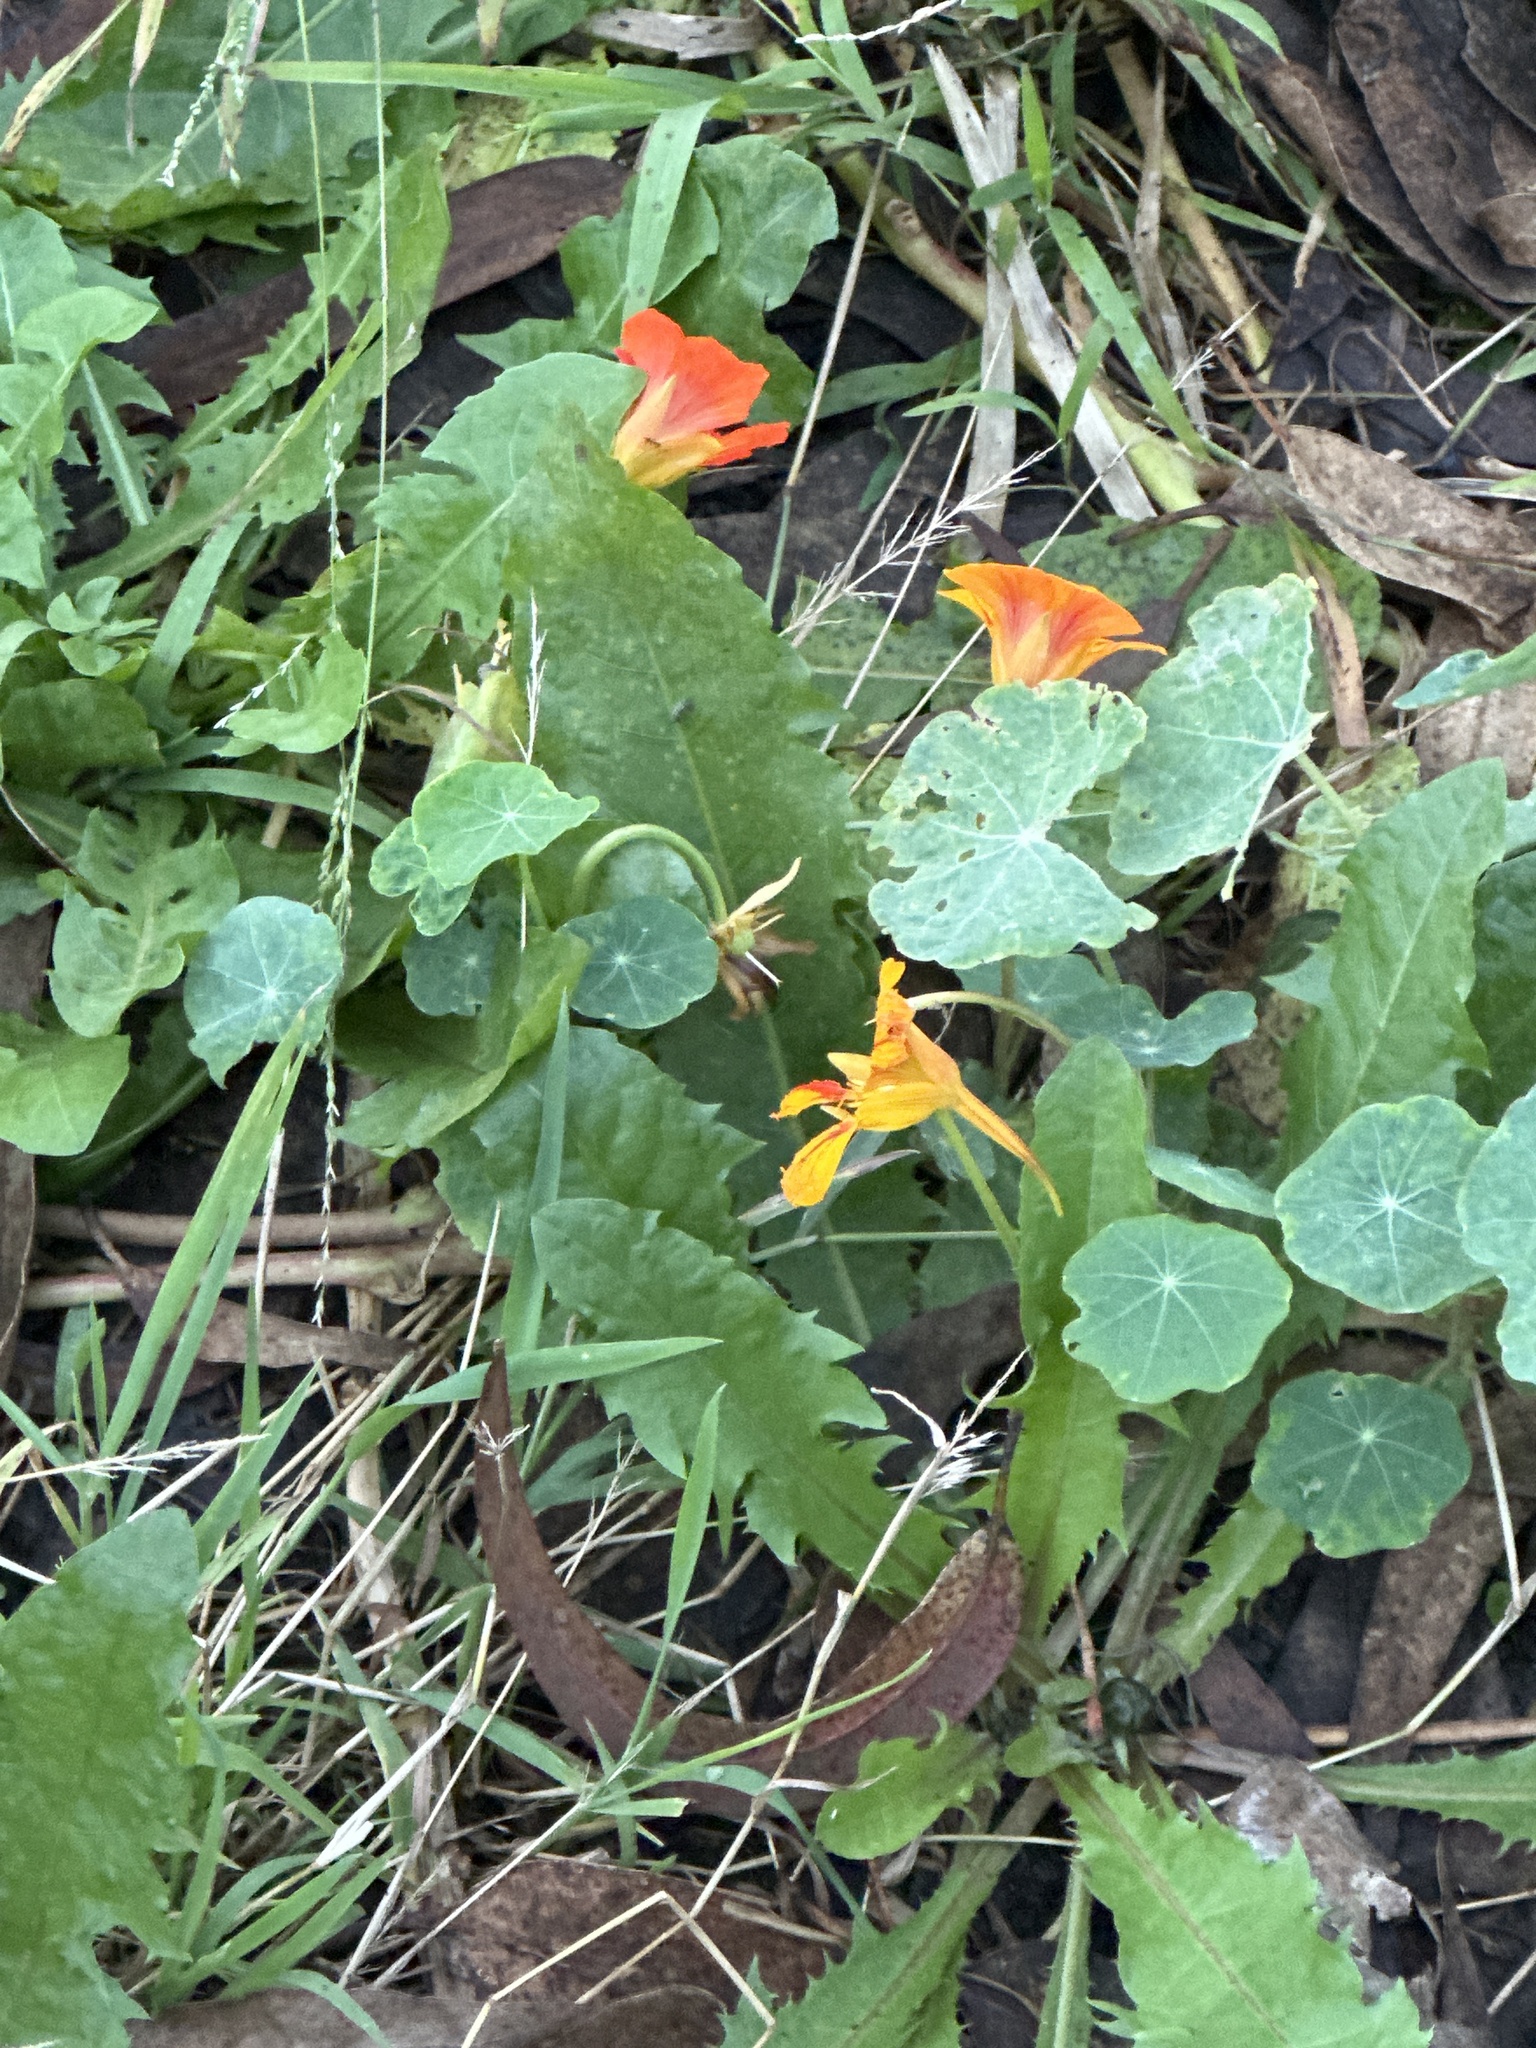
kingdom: Plantae
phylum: Tracheophyta
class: Magnoliopsida
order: Brassicales
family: Tropaeolaceae
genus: Tropaeolum
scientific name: Tropaeolum majus
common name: Nasturtium
